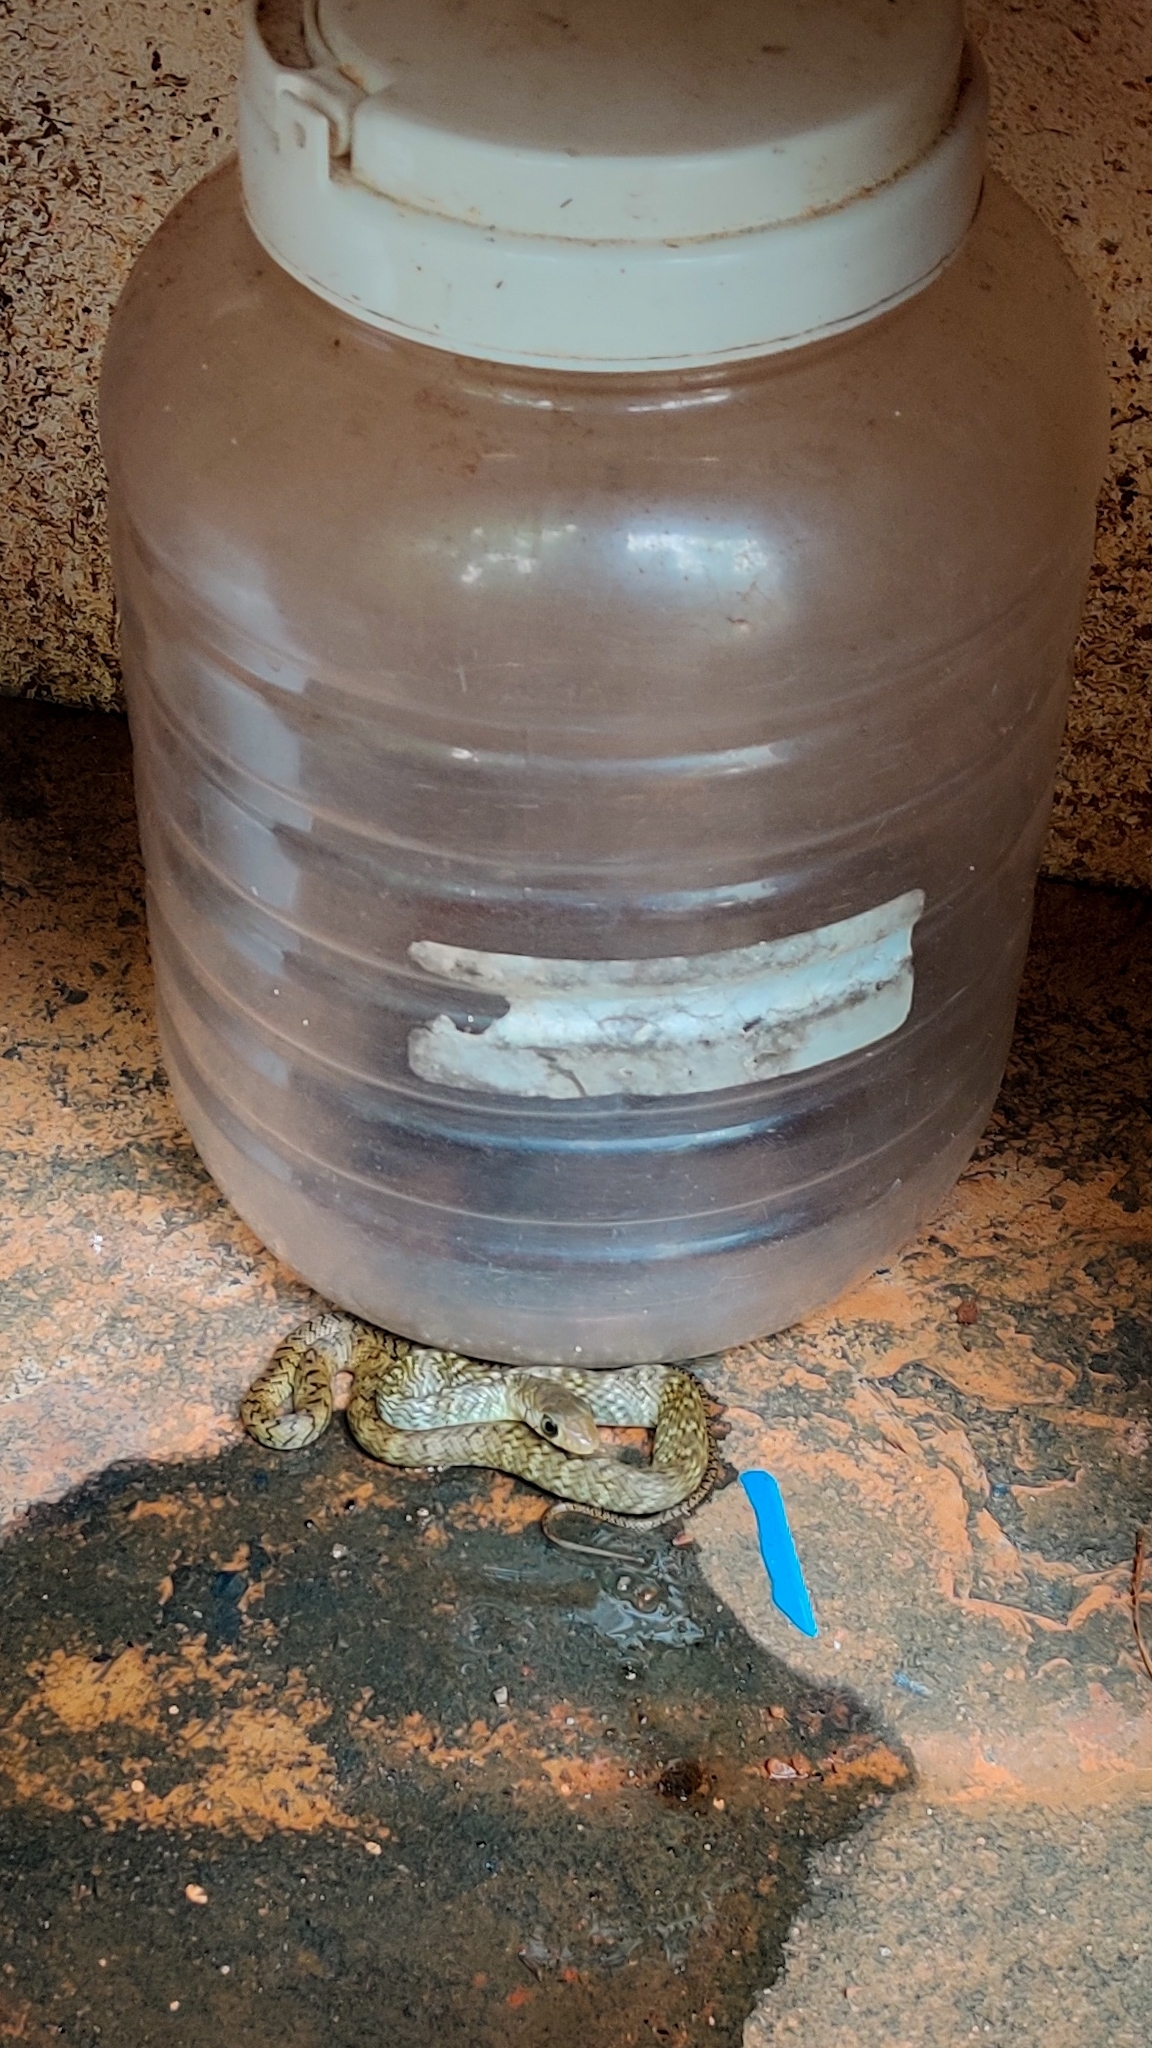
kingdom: Animalia
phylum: Chordata
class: Squamata
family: Colubridae
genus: Ptyas
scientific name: Ptyas mucosa
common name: Oriental ratsnake
